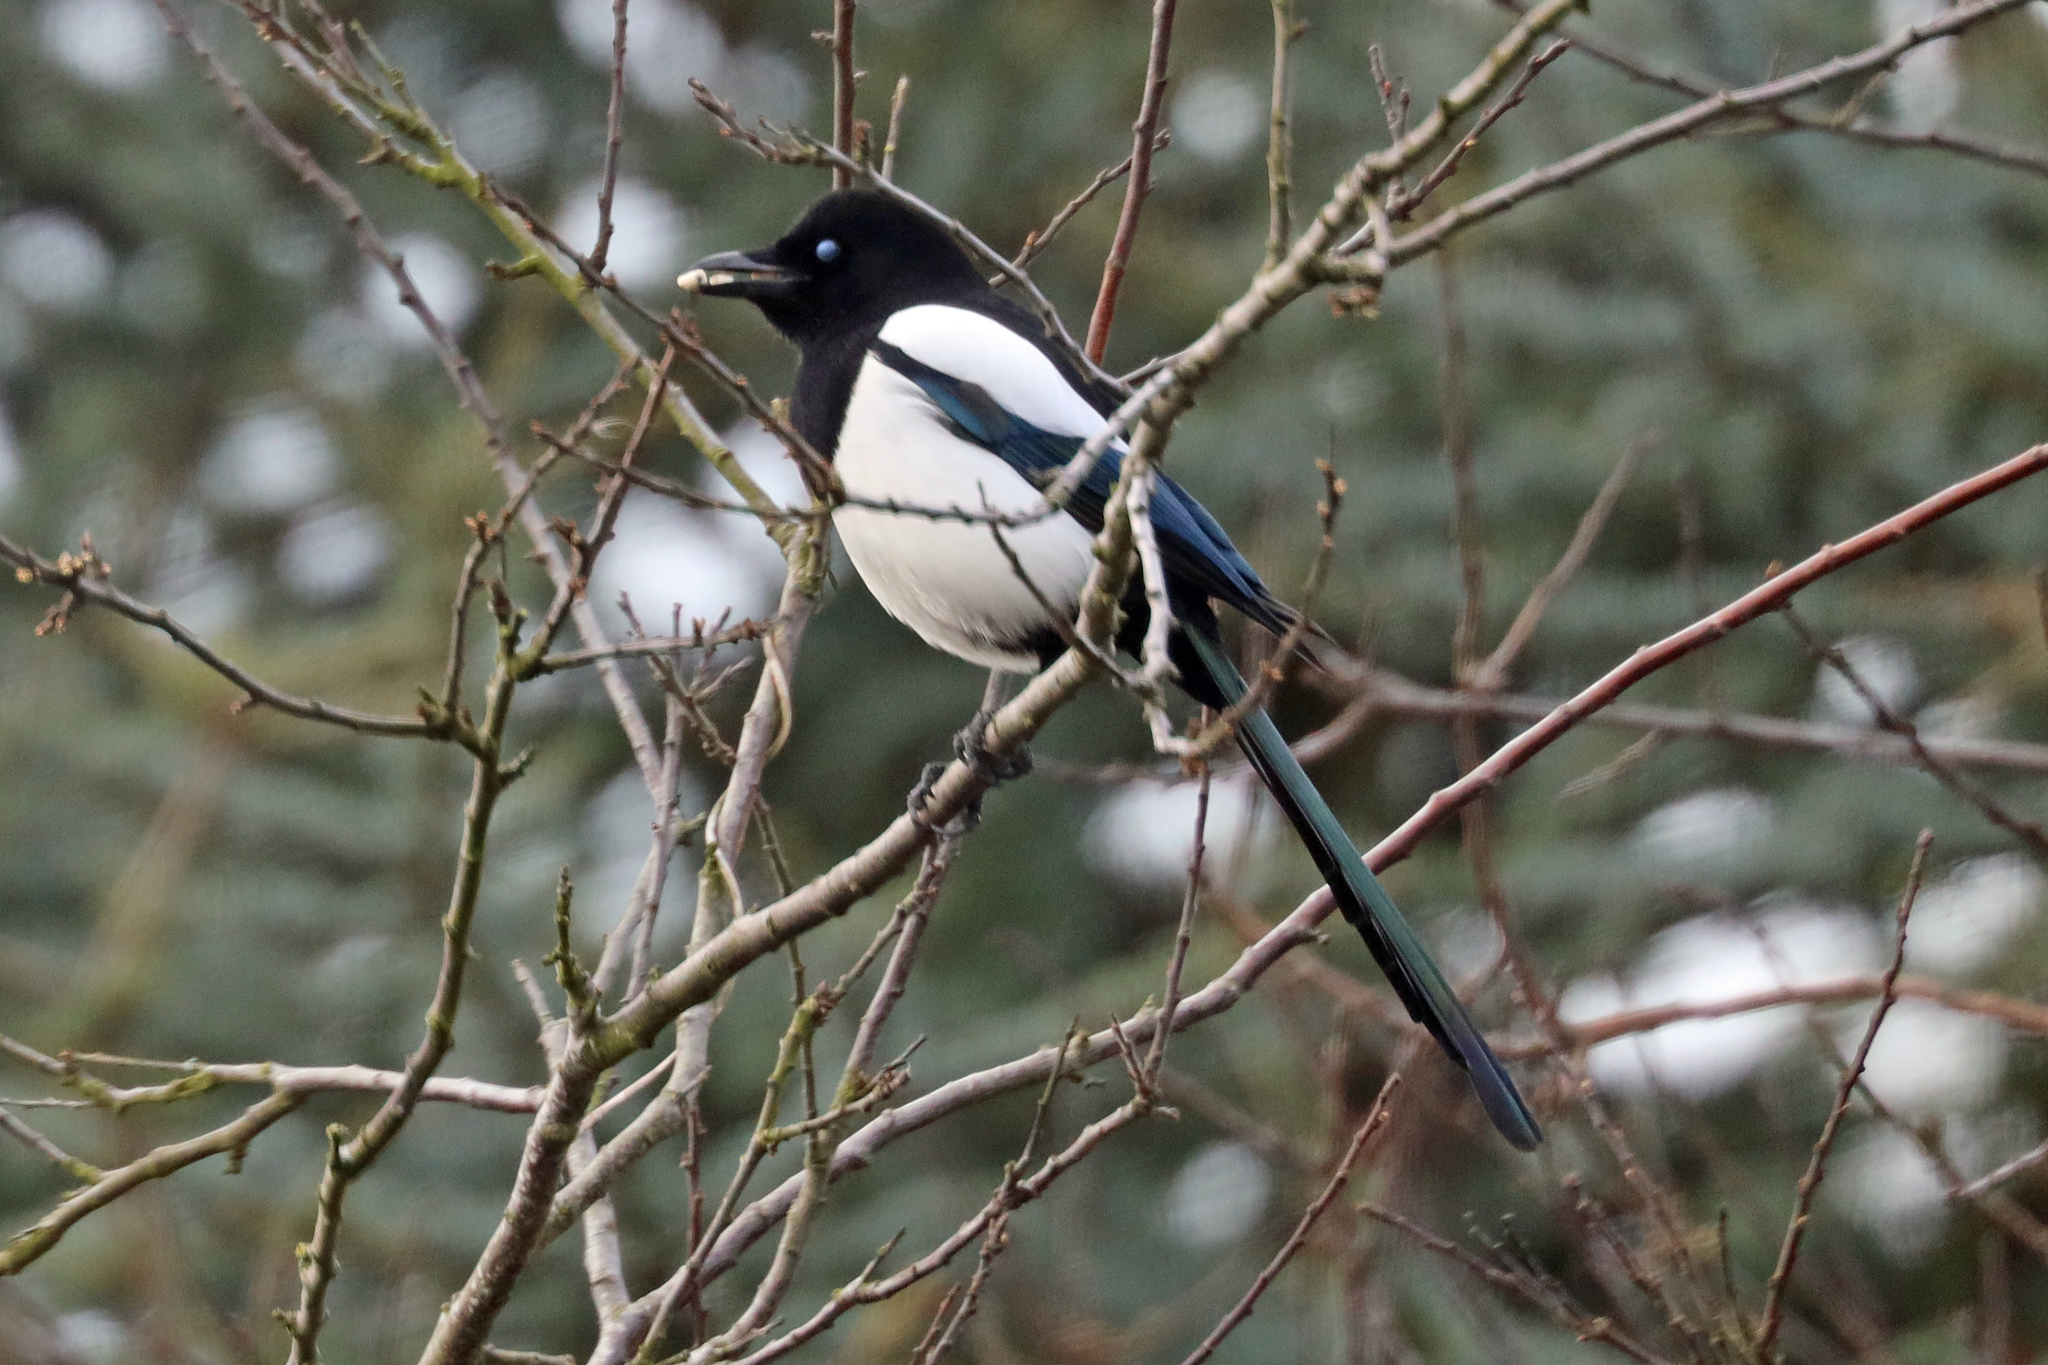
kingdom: Animalia
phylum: Chordata
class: Aves
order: Passeriformes
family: Corvidae
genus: Pica
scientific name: Pica pica
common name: Eurasian magpie
